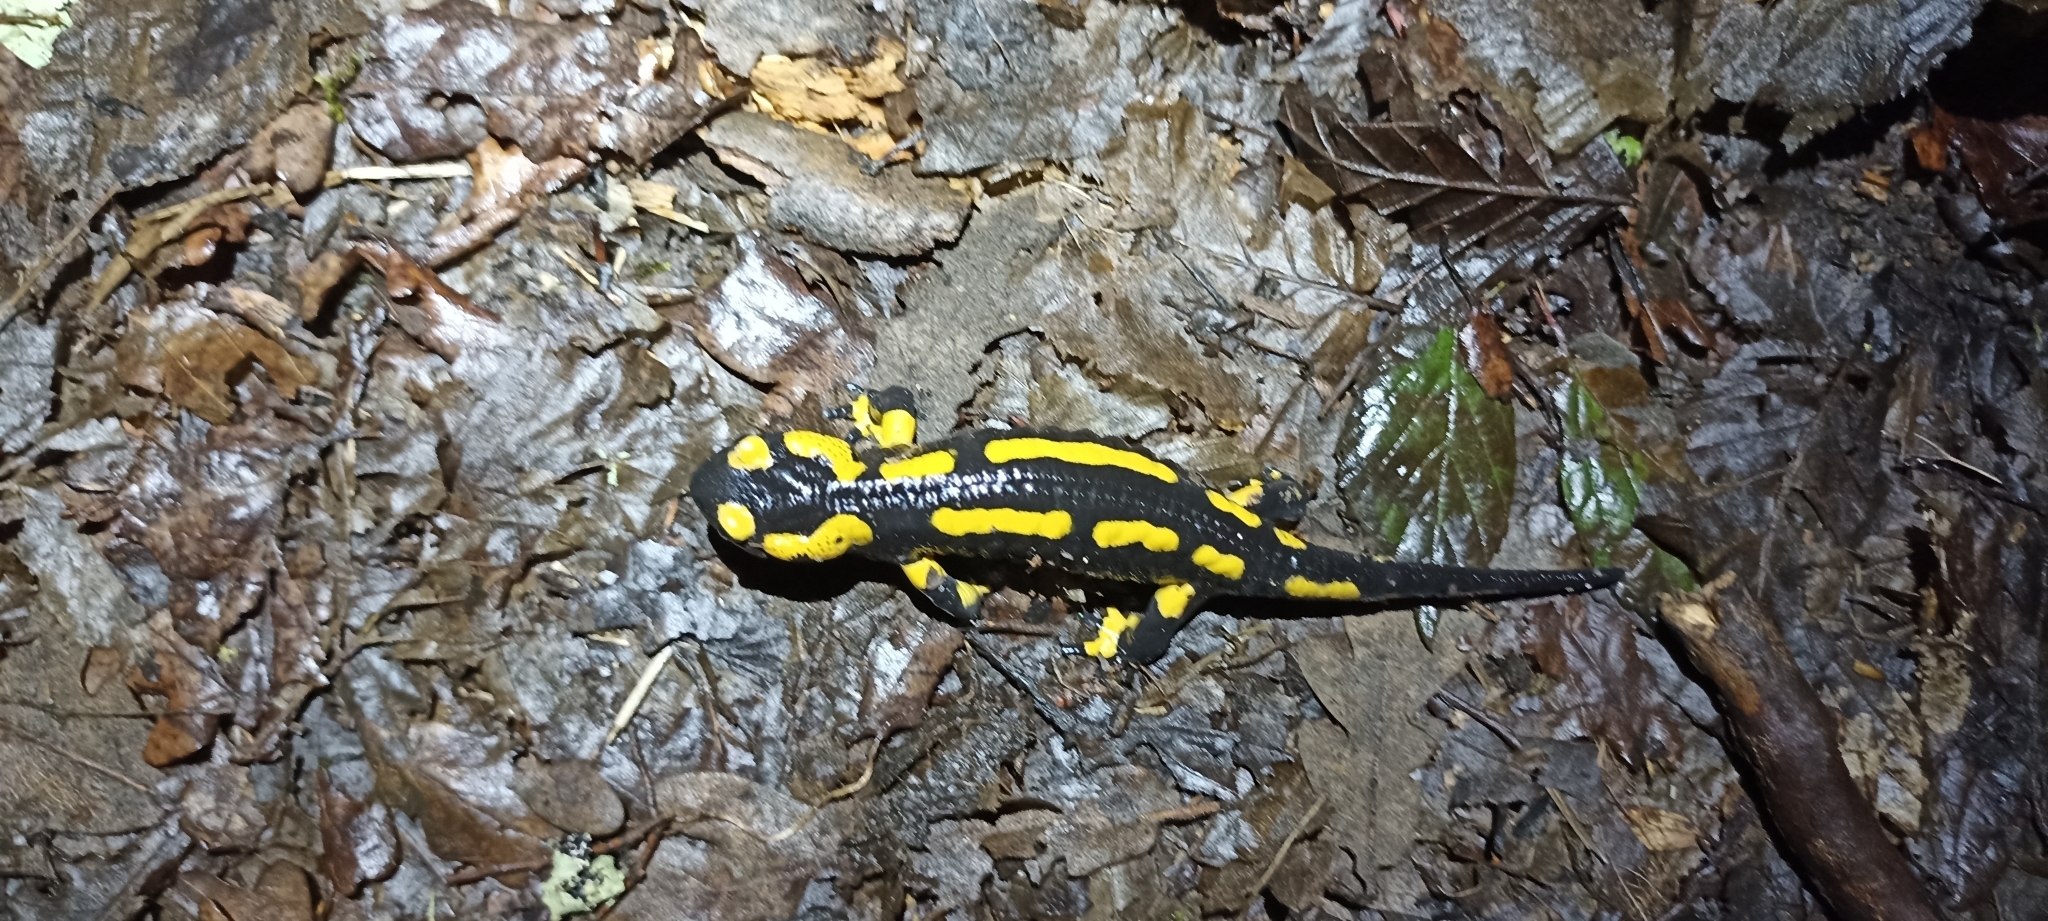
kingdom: Animalia
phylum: Chordata
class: Amphibia
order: Caudata
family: Salamandridae
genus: Salamandra
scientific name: Salamandra salamandra
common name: Fire salamander
